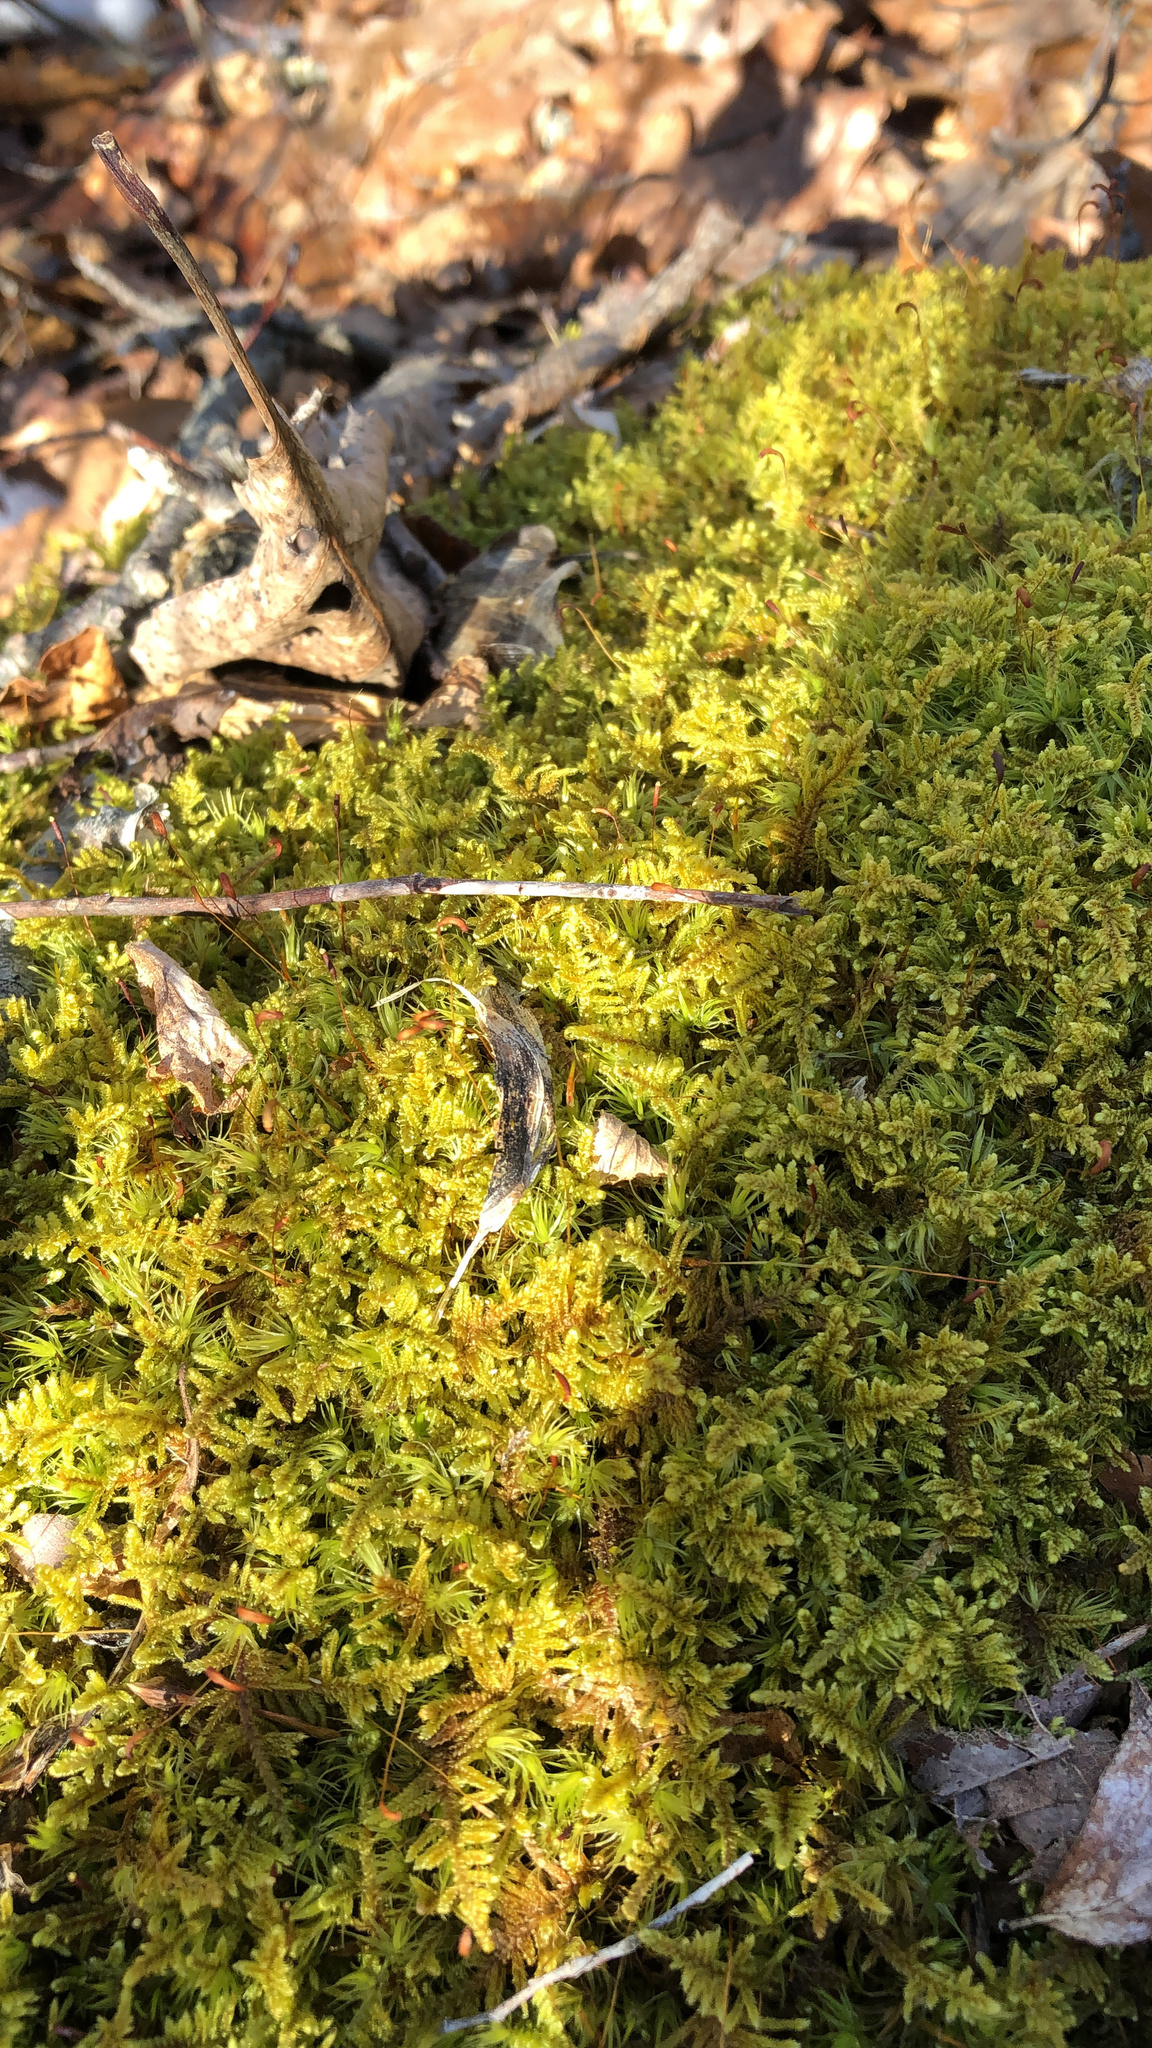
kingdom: Plantae
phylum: Bryophyta
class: Bryopsida
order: Hypnales
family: Callicladiaceae
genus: Callicladium
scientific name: Callicladium imponens
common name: Brocade moss
